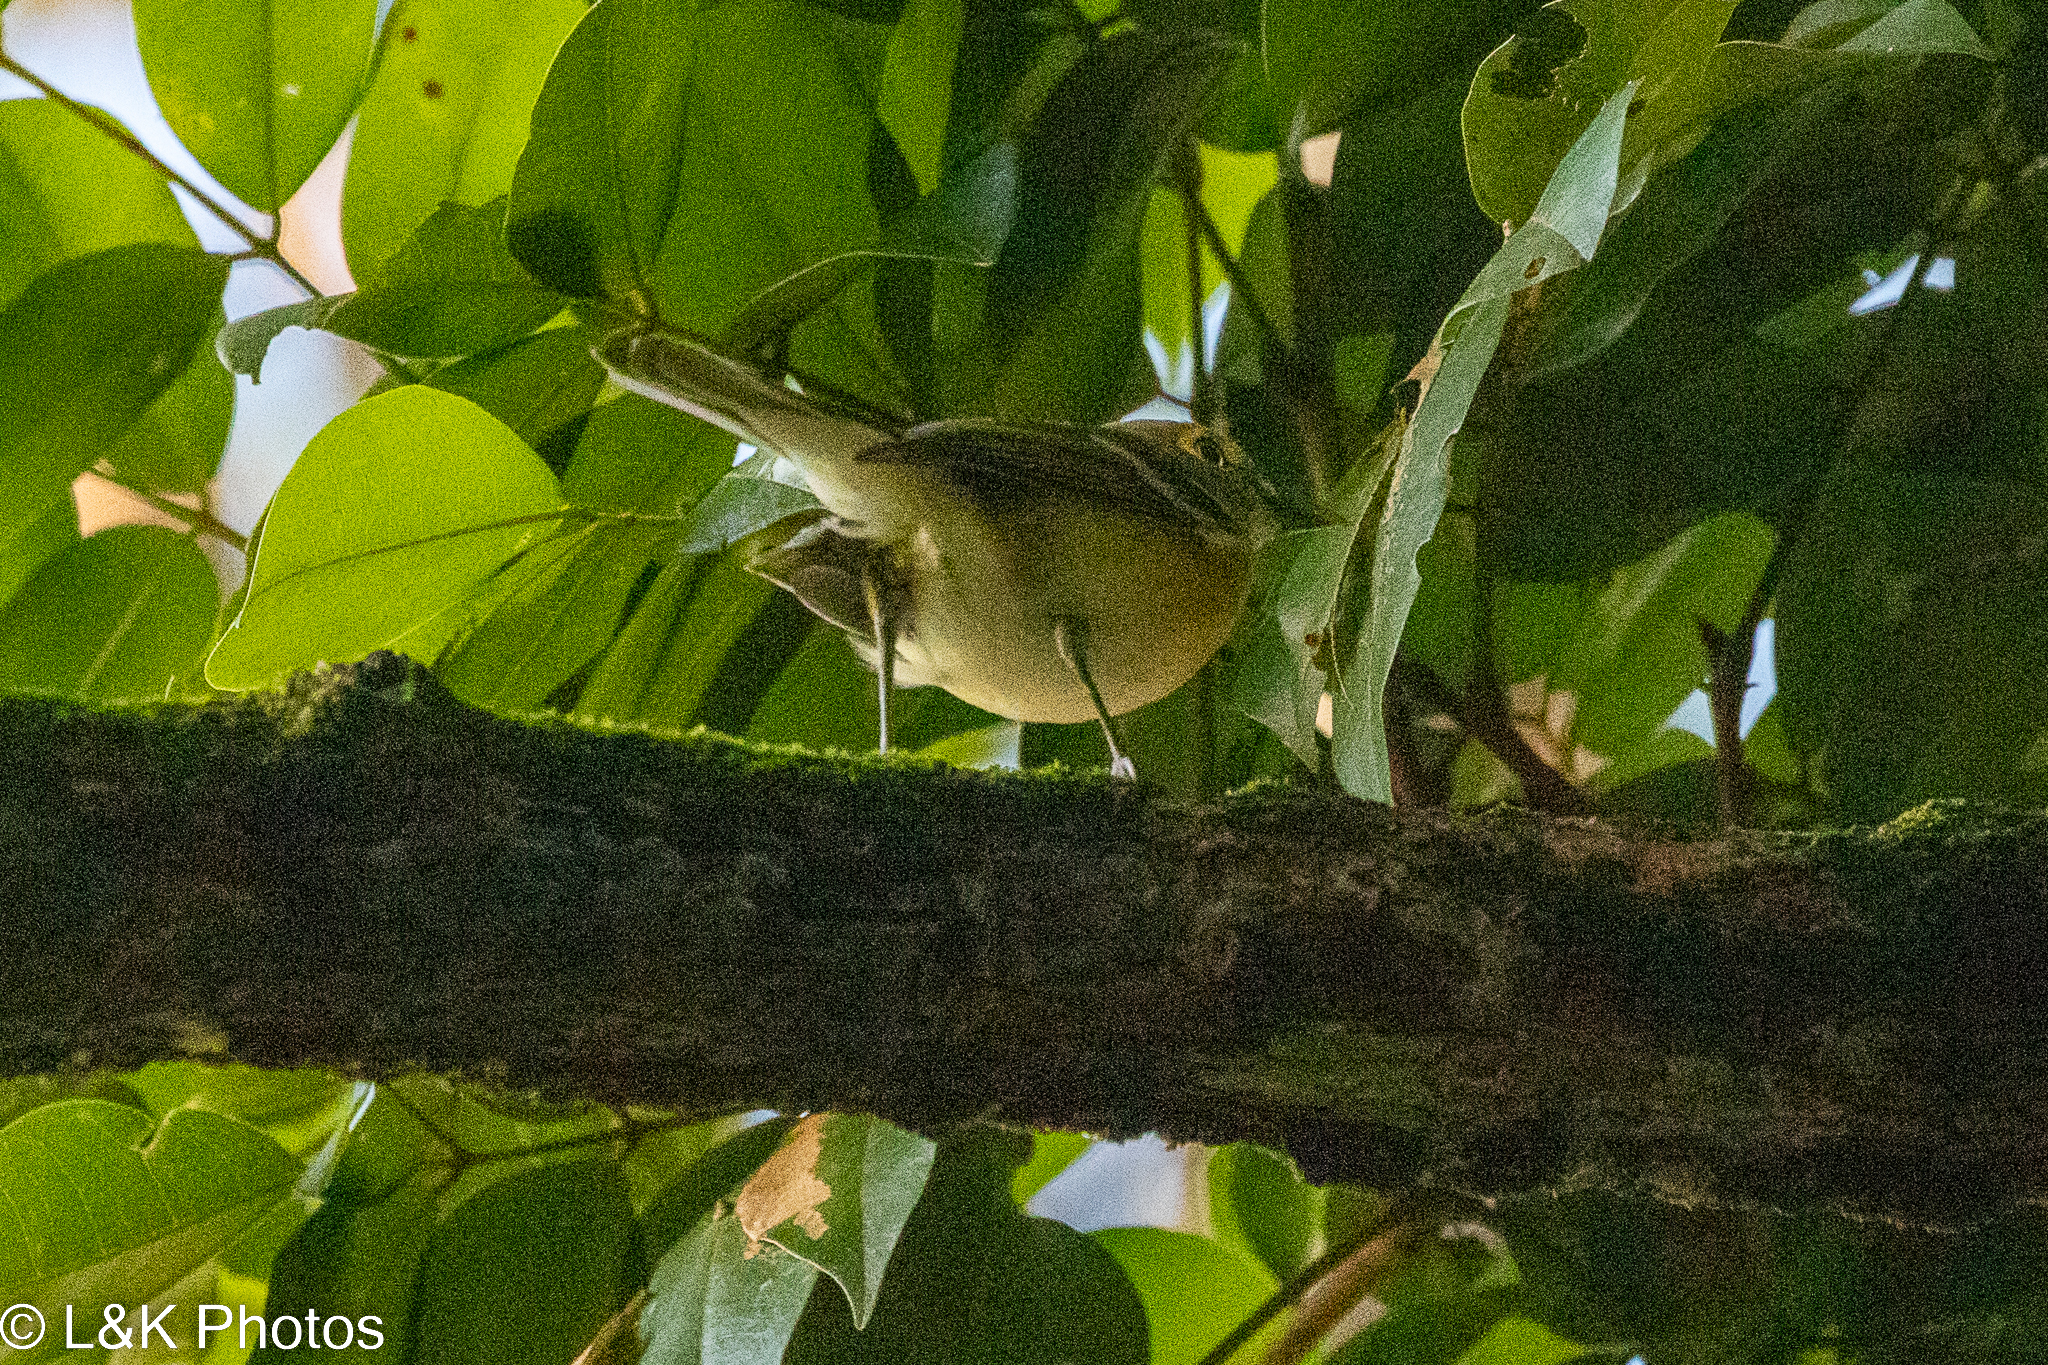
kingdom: Animalia
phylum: Chordata
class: Aves
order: Passeriformes
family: Vireonidae
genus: Vireo
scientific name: Vireo griseus
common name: White-eyed vireo
